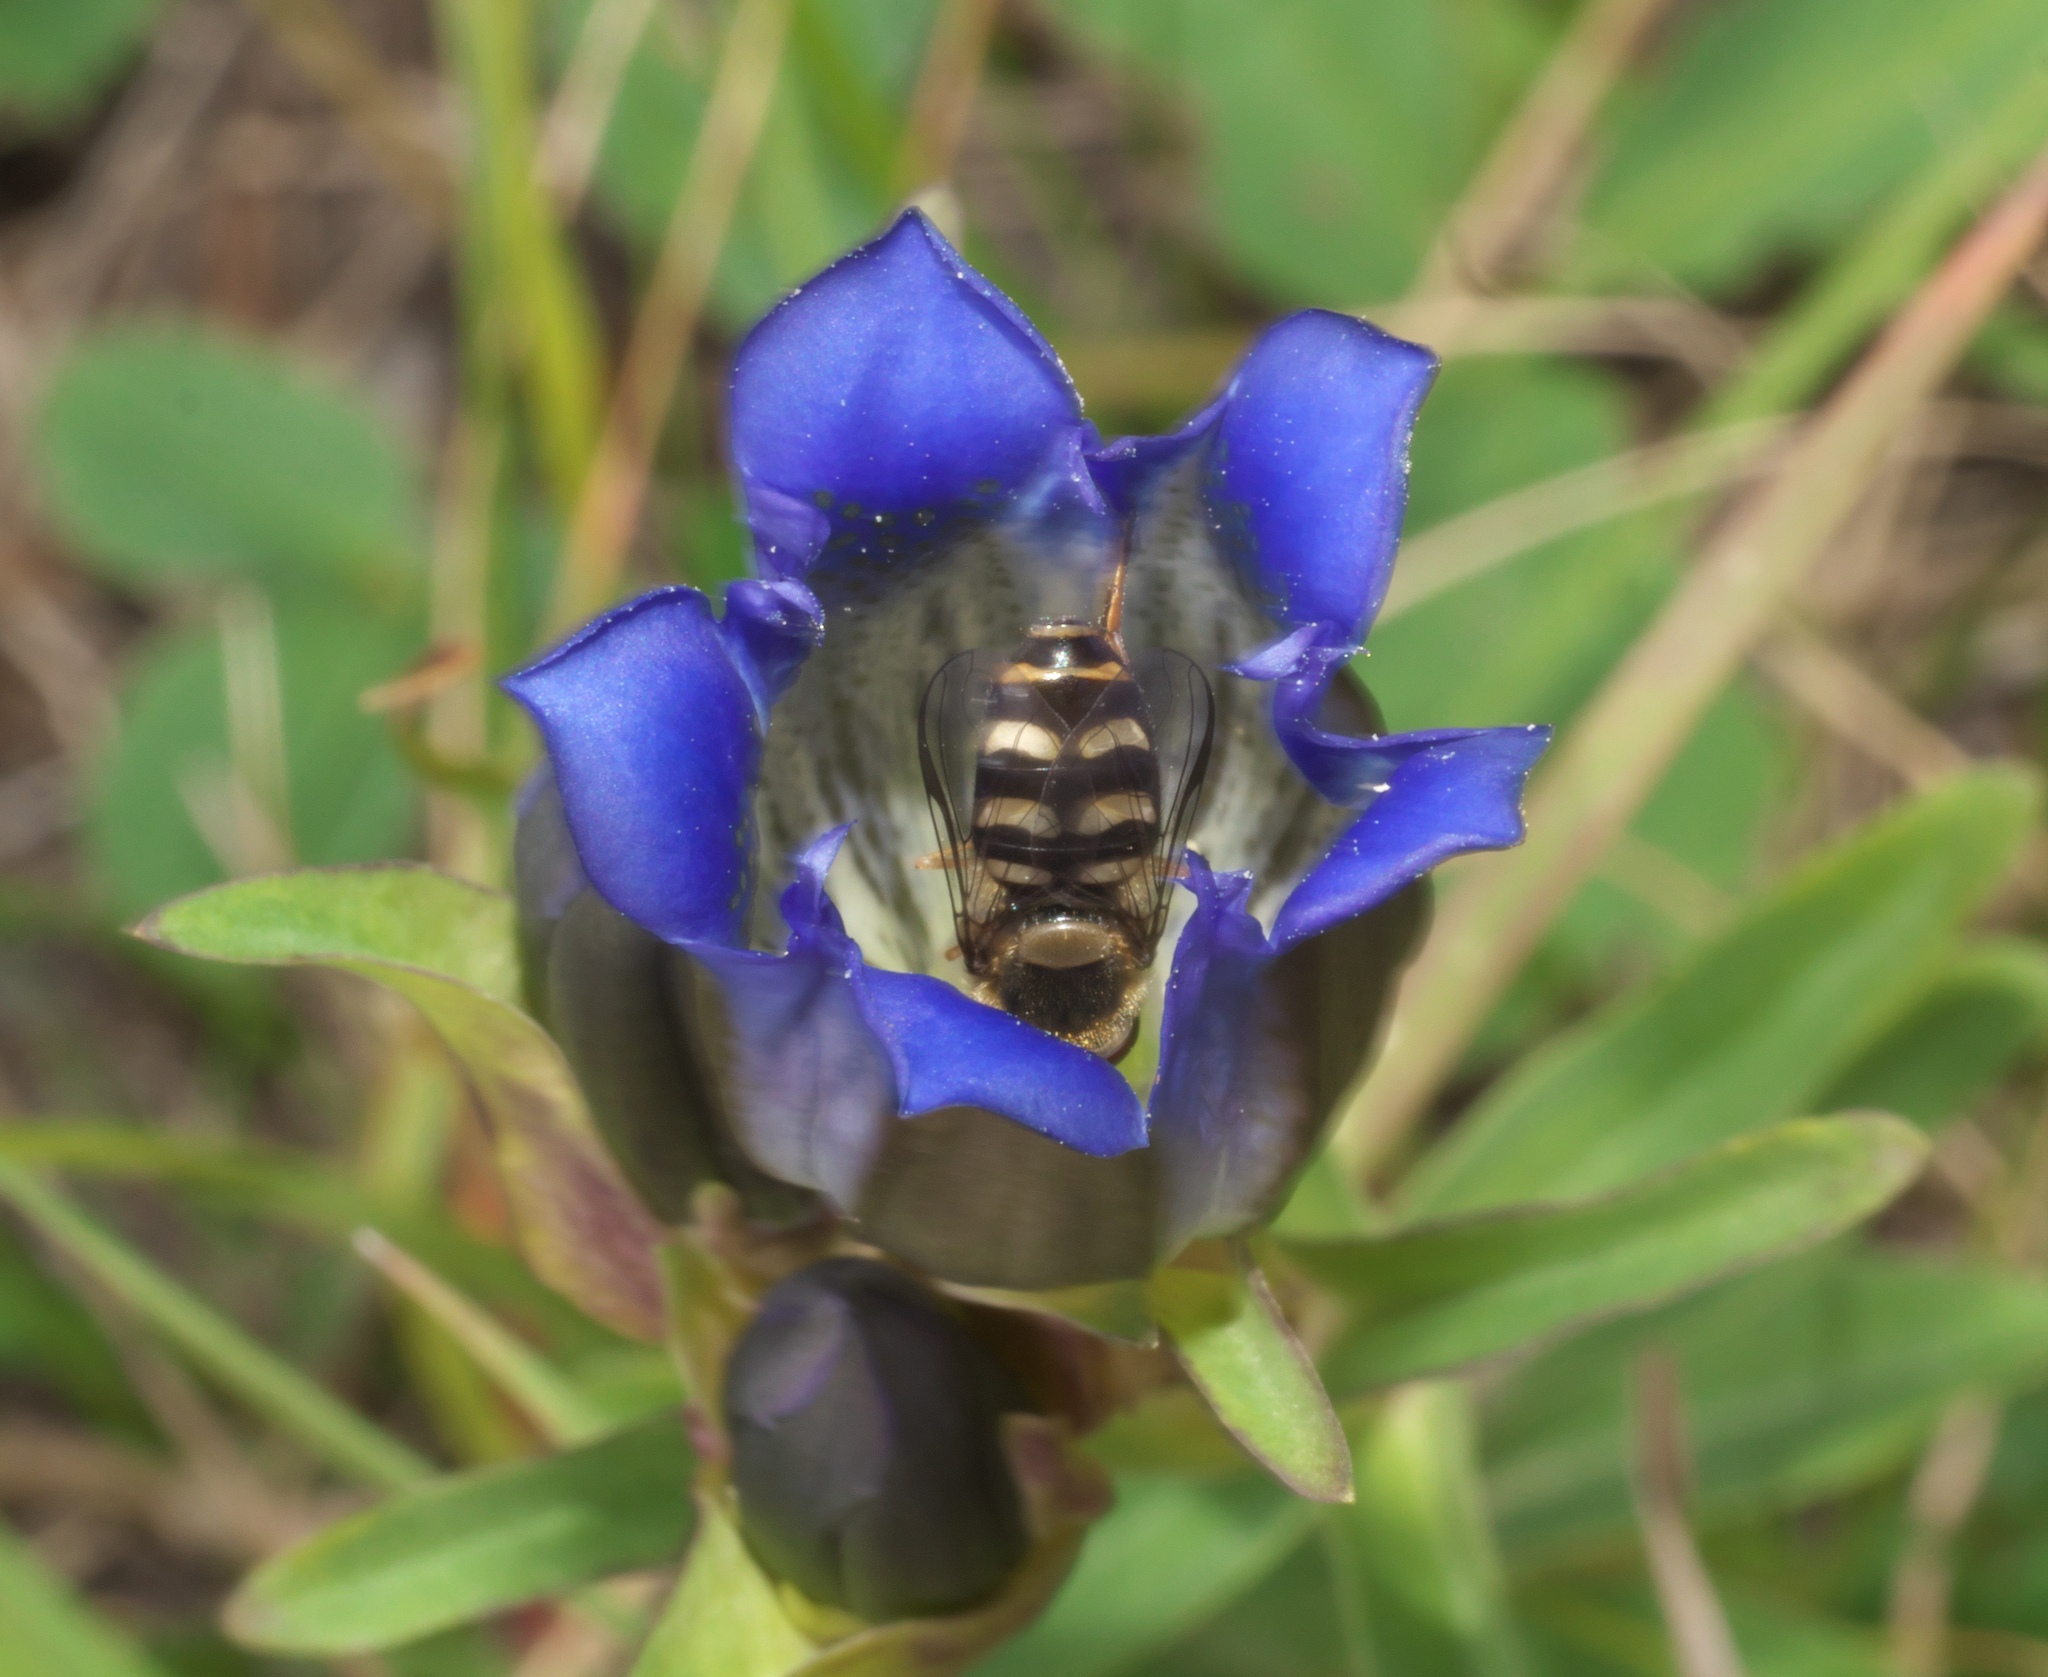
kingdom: Animalia
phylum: Arthropoda
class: Insecta
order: Diptera
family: Syrphidae
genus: Lapposyrphus
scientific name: Lapposyrphus lapponicus
